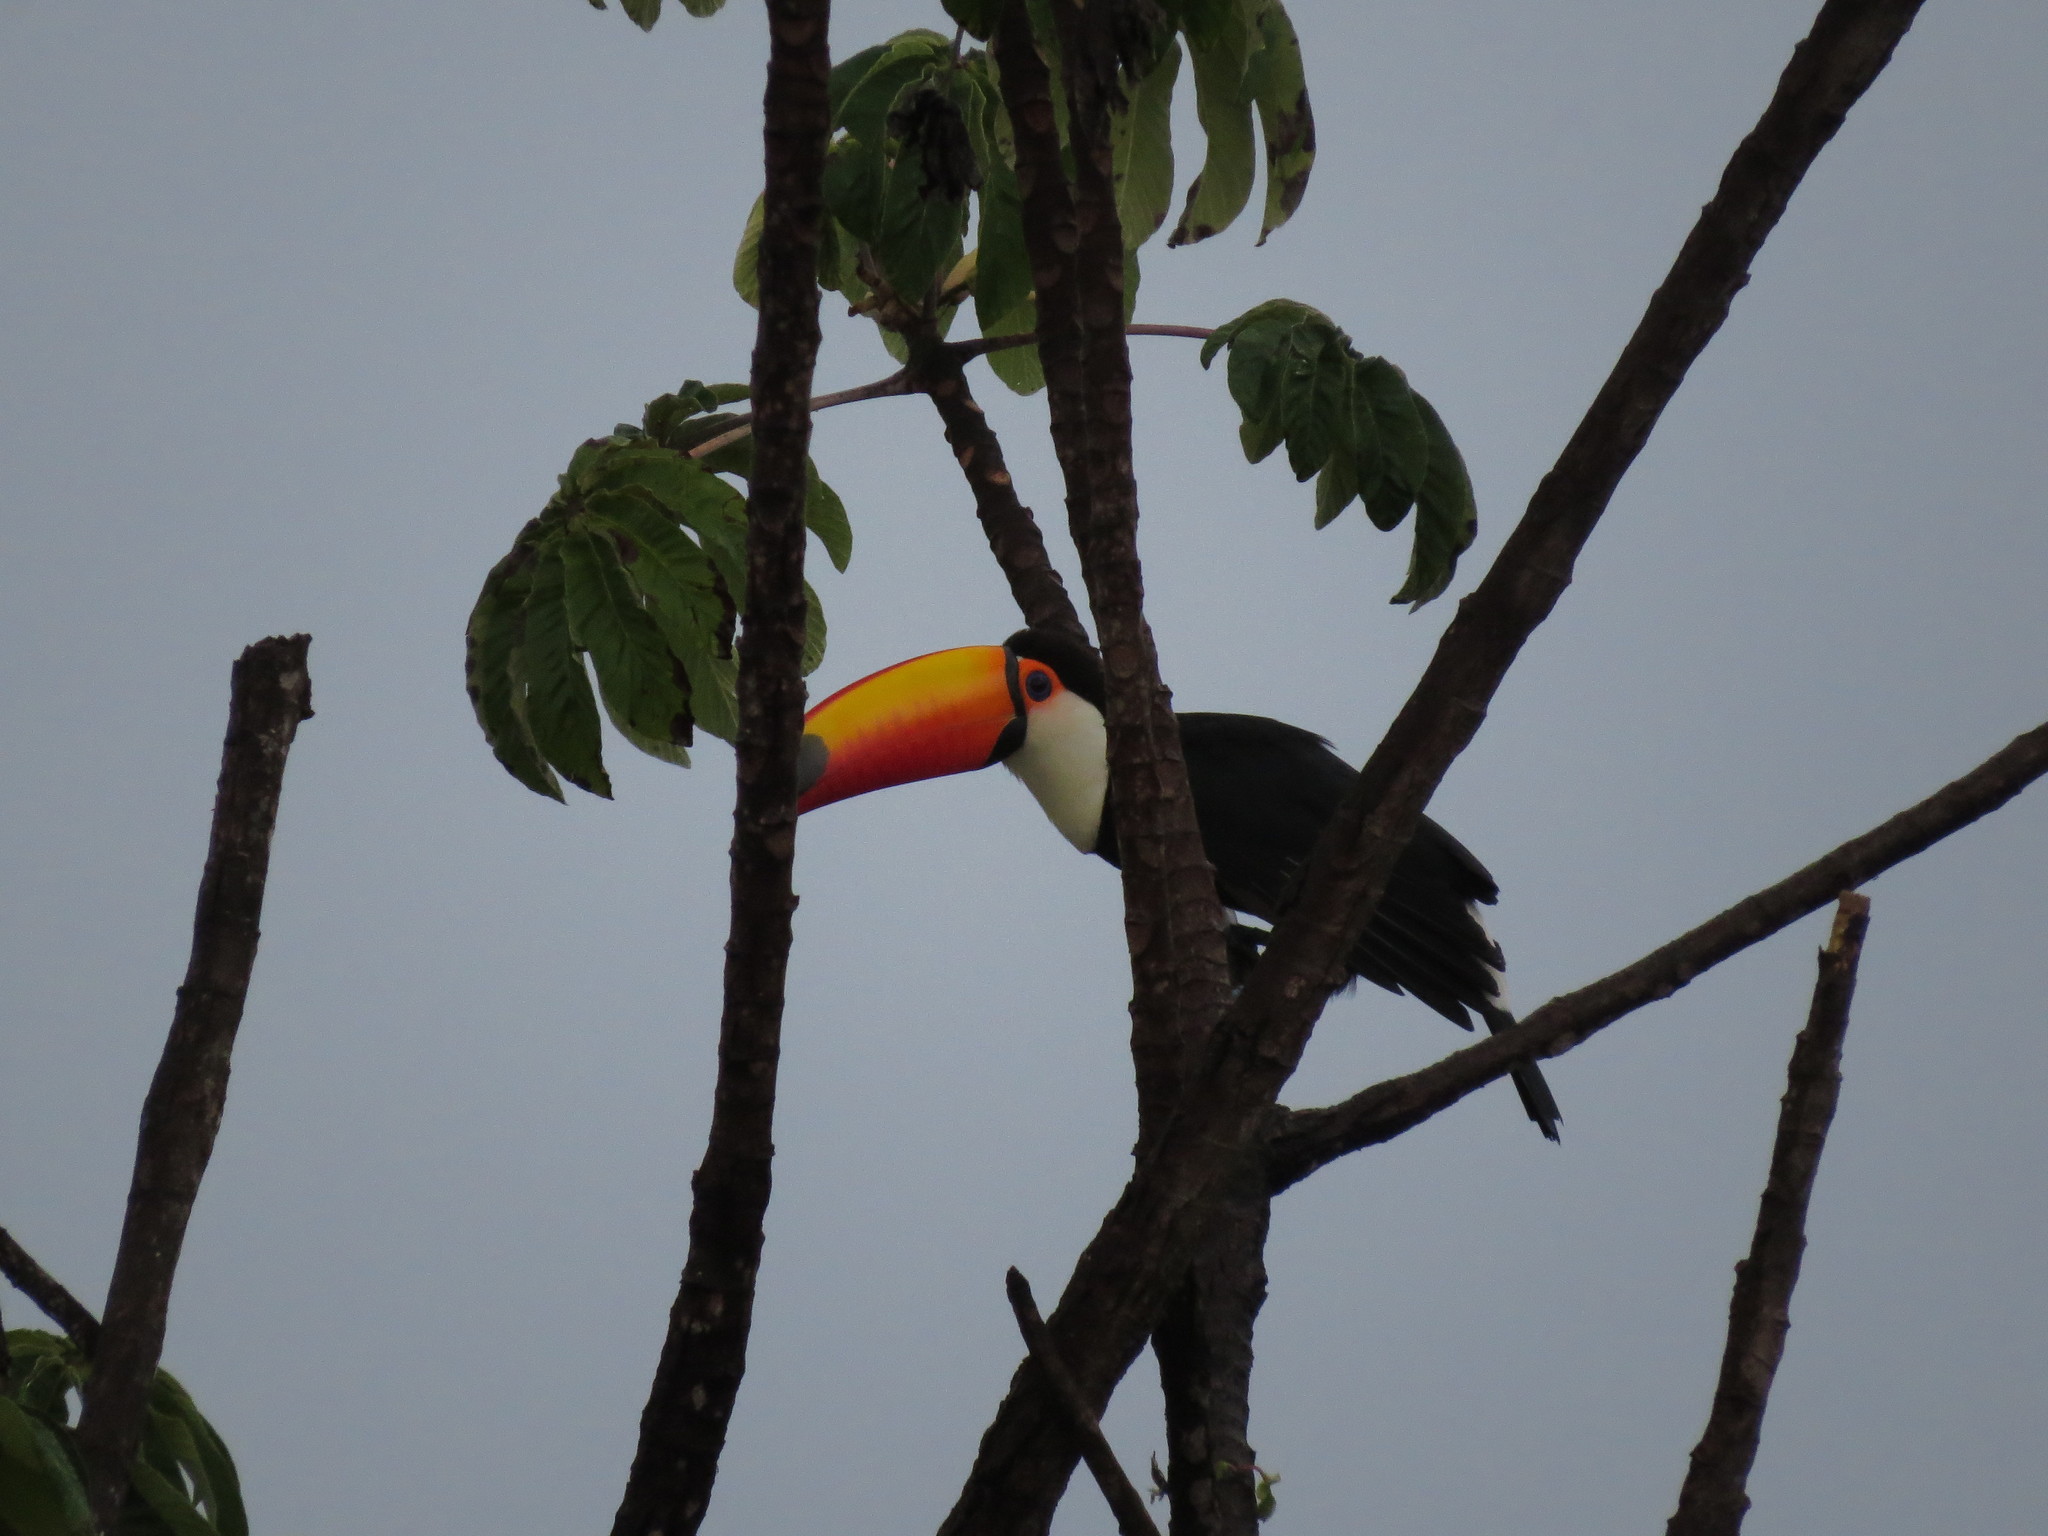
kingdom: Animalia
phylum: Chordata
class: Aves
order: Piciformes
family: Ramphastidae
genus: Ramphastos
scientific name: Ramphastos toco
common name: Toco toucan
